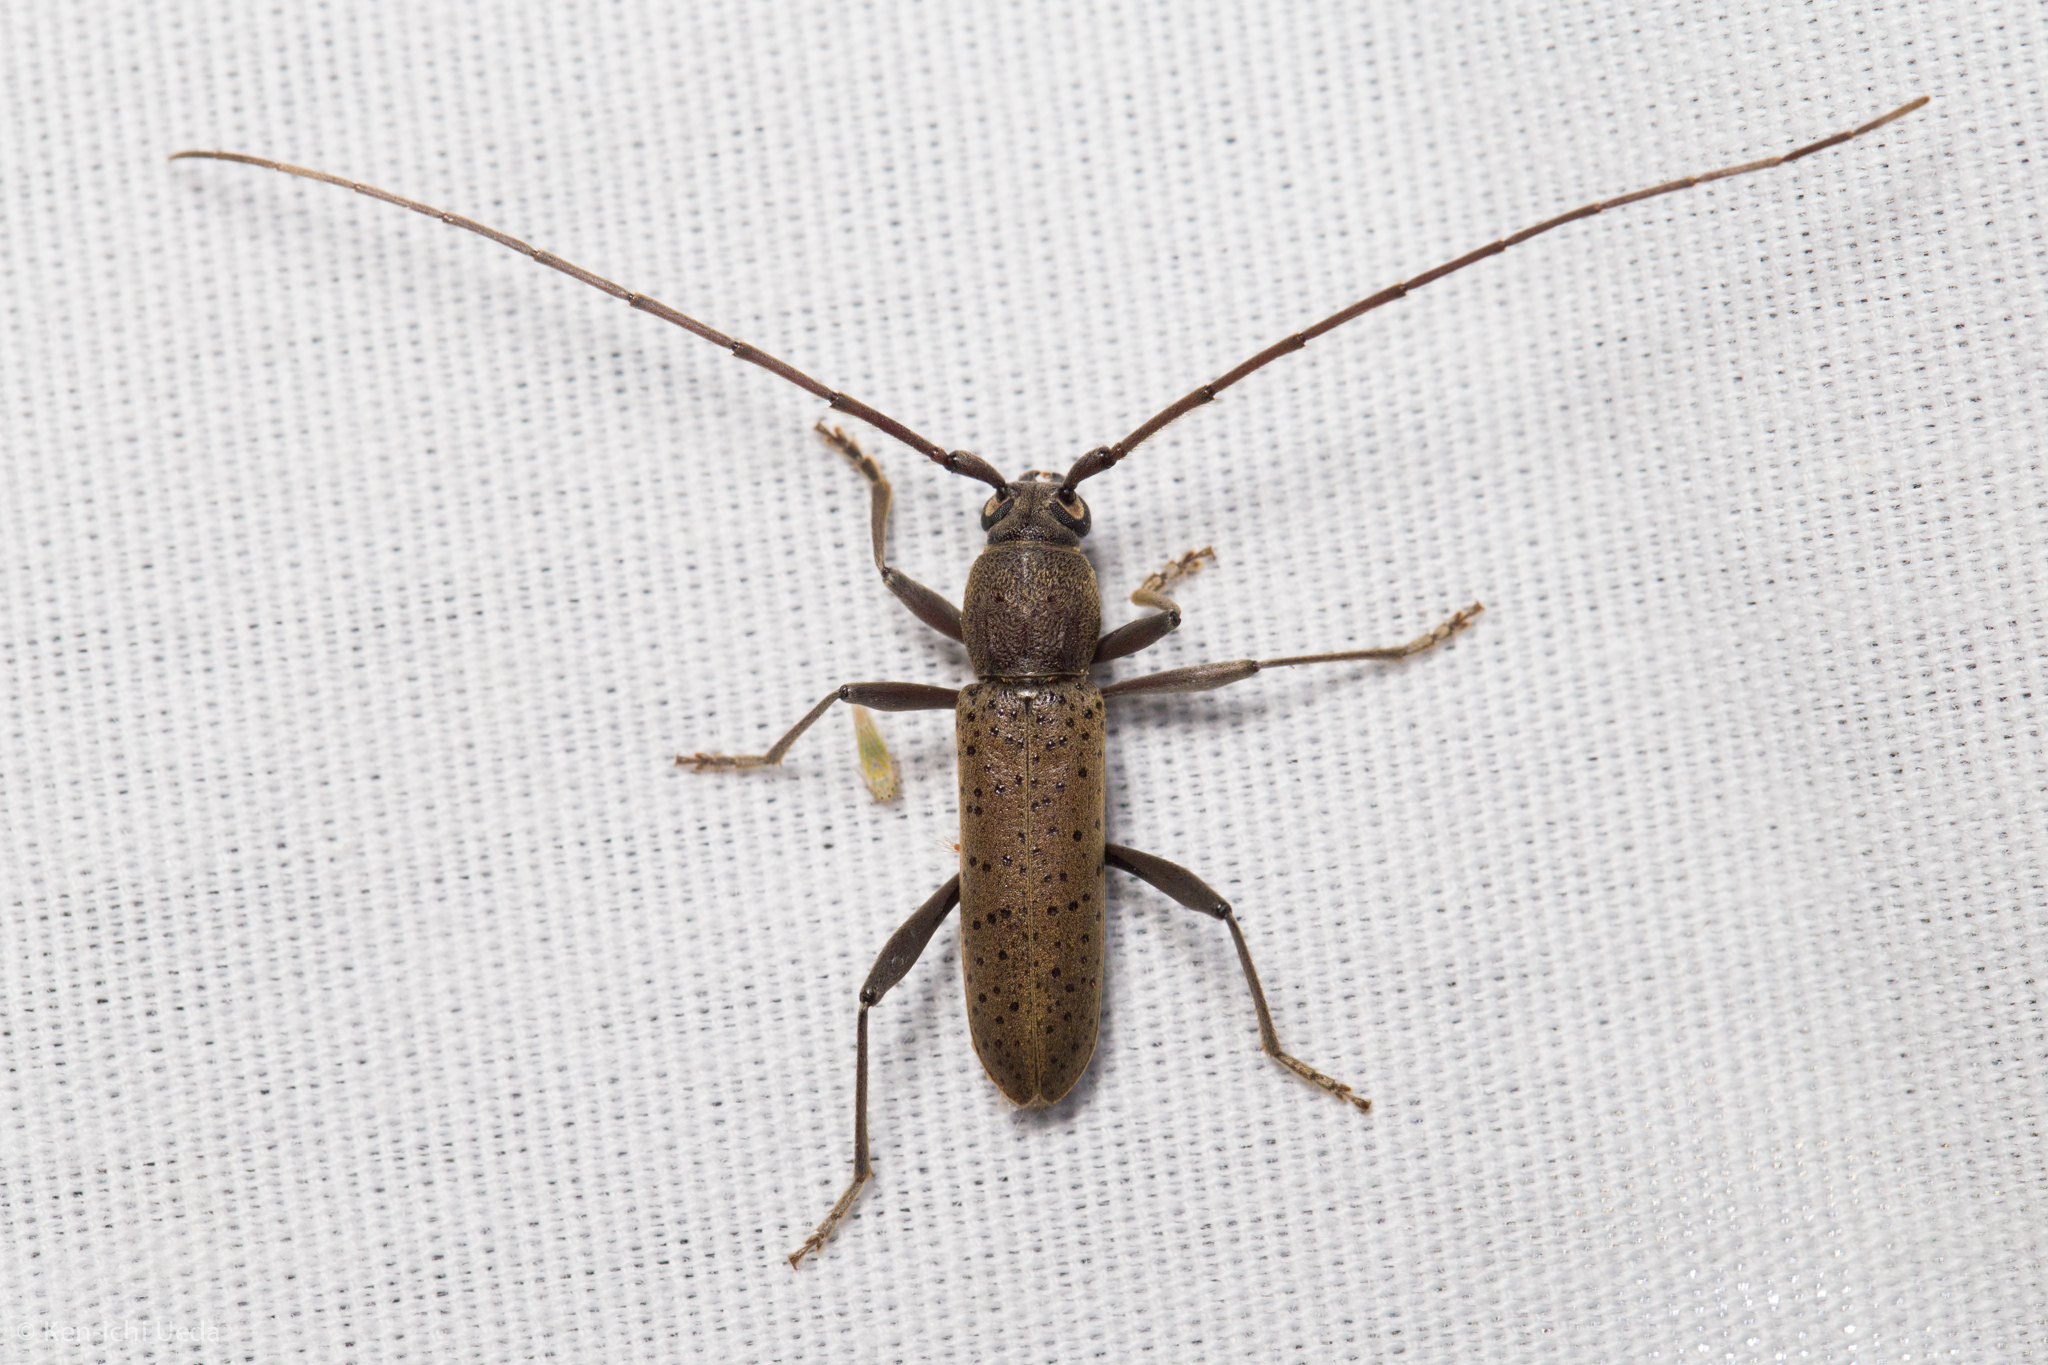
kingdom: Animalia
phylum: Arthropoda
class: Insecta
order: Coleoptera
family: Cerambycidae
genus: Osmidus
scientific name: Osmidus guttatus
